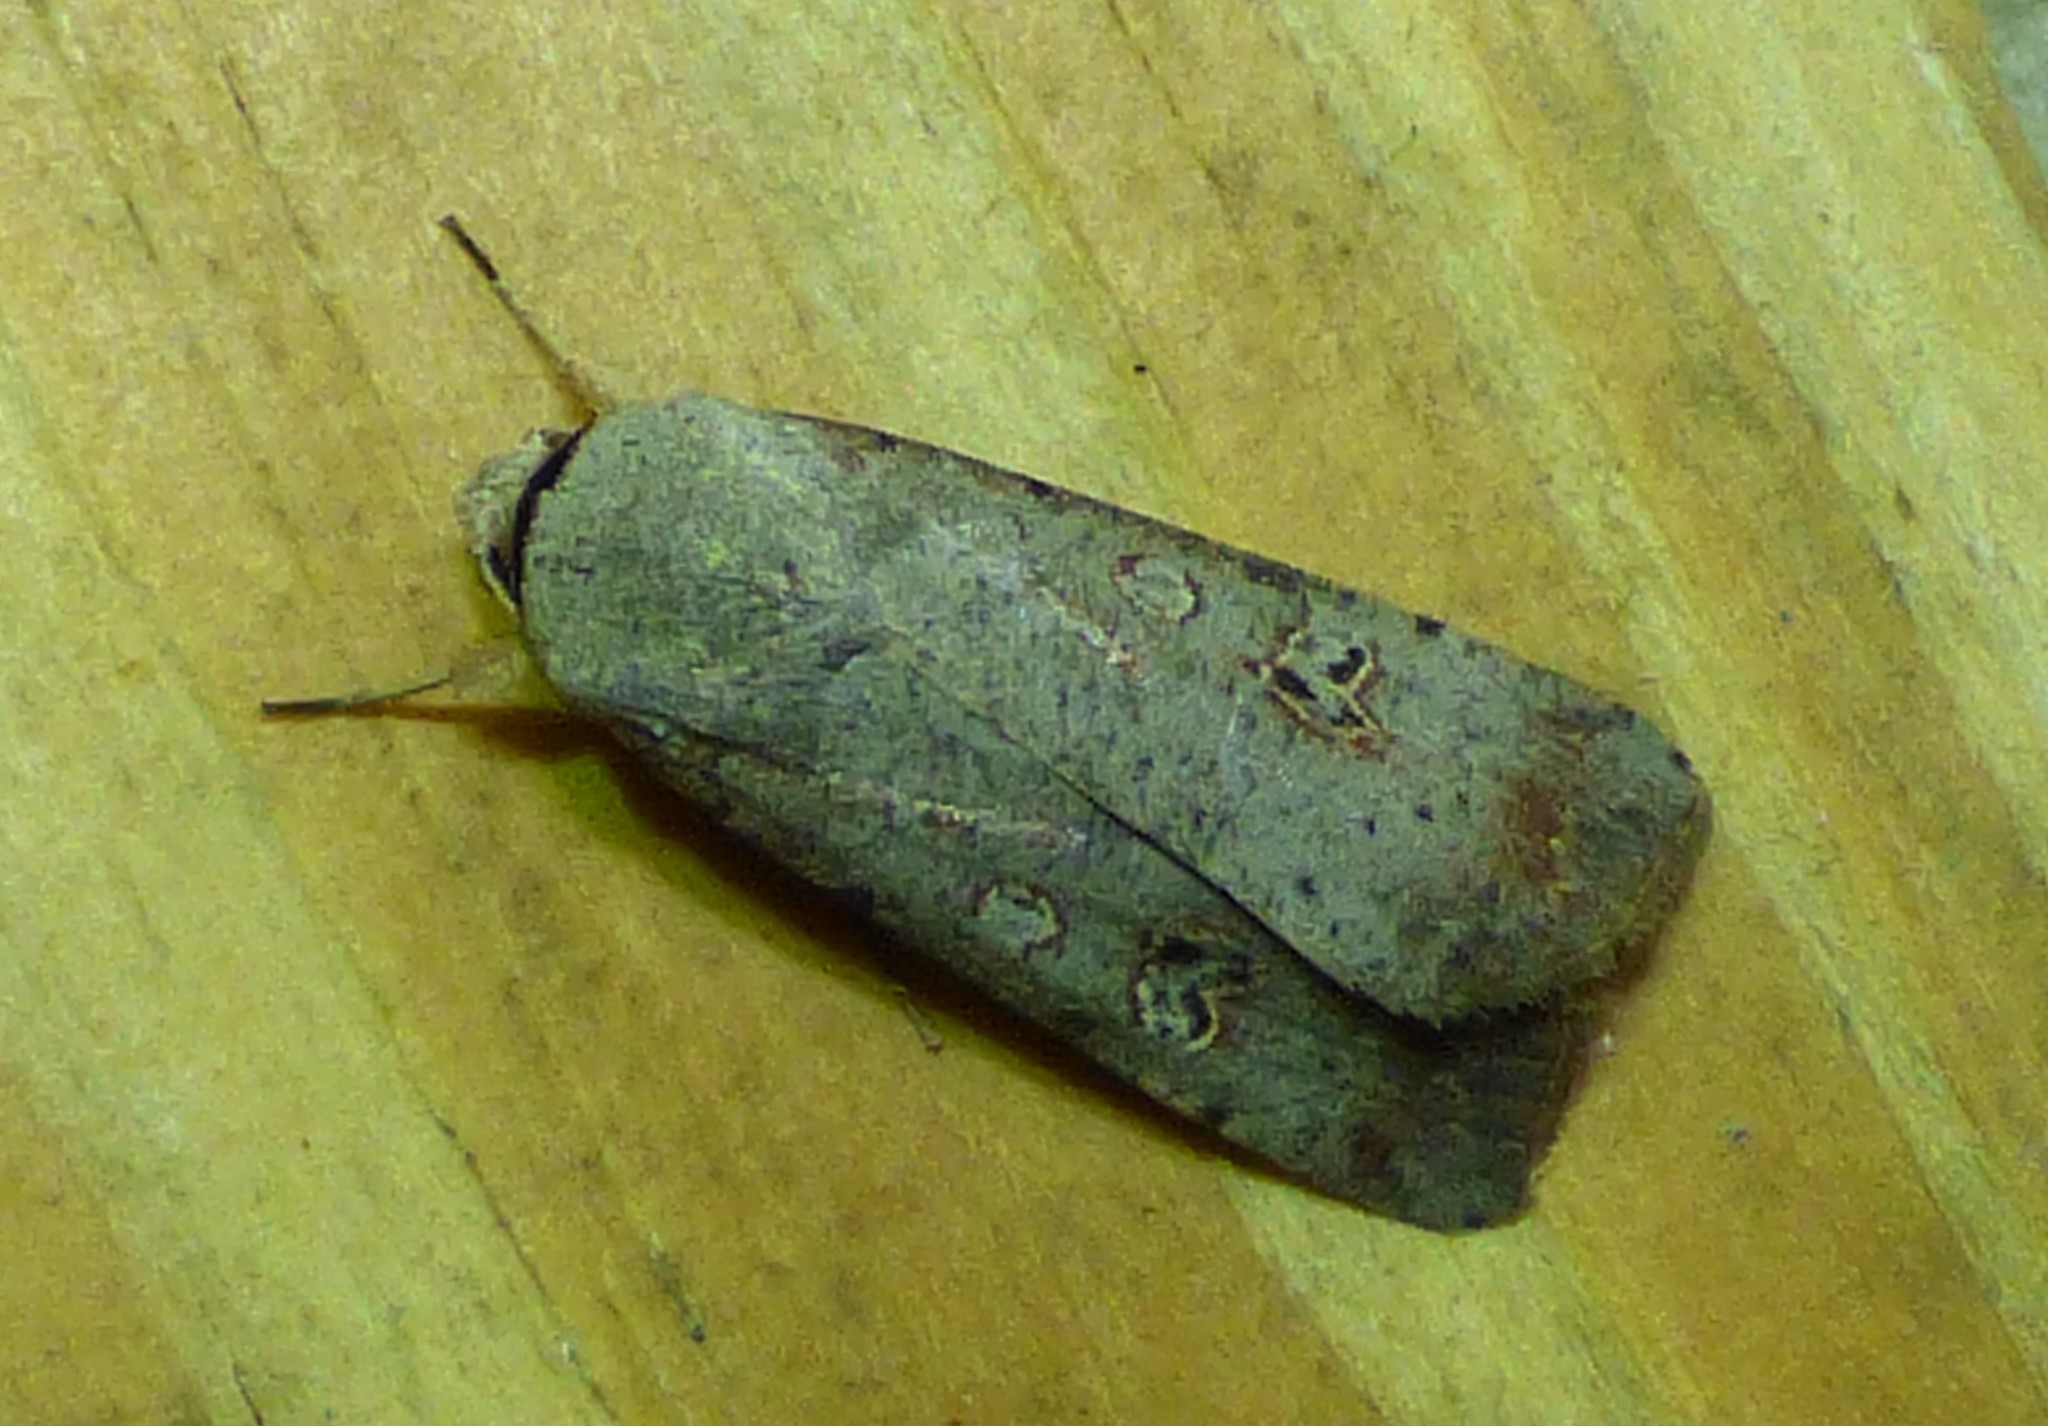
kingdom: Animalia
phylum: Arthropoda
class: Insecta
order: Lepidoptera
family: Noctuidae
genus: Anicla
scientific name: Anicla infecta
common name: Green cutworm
